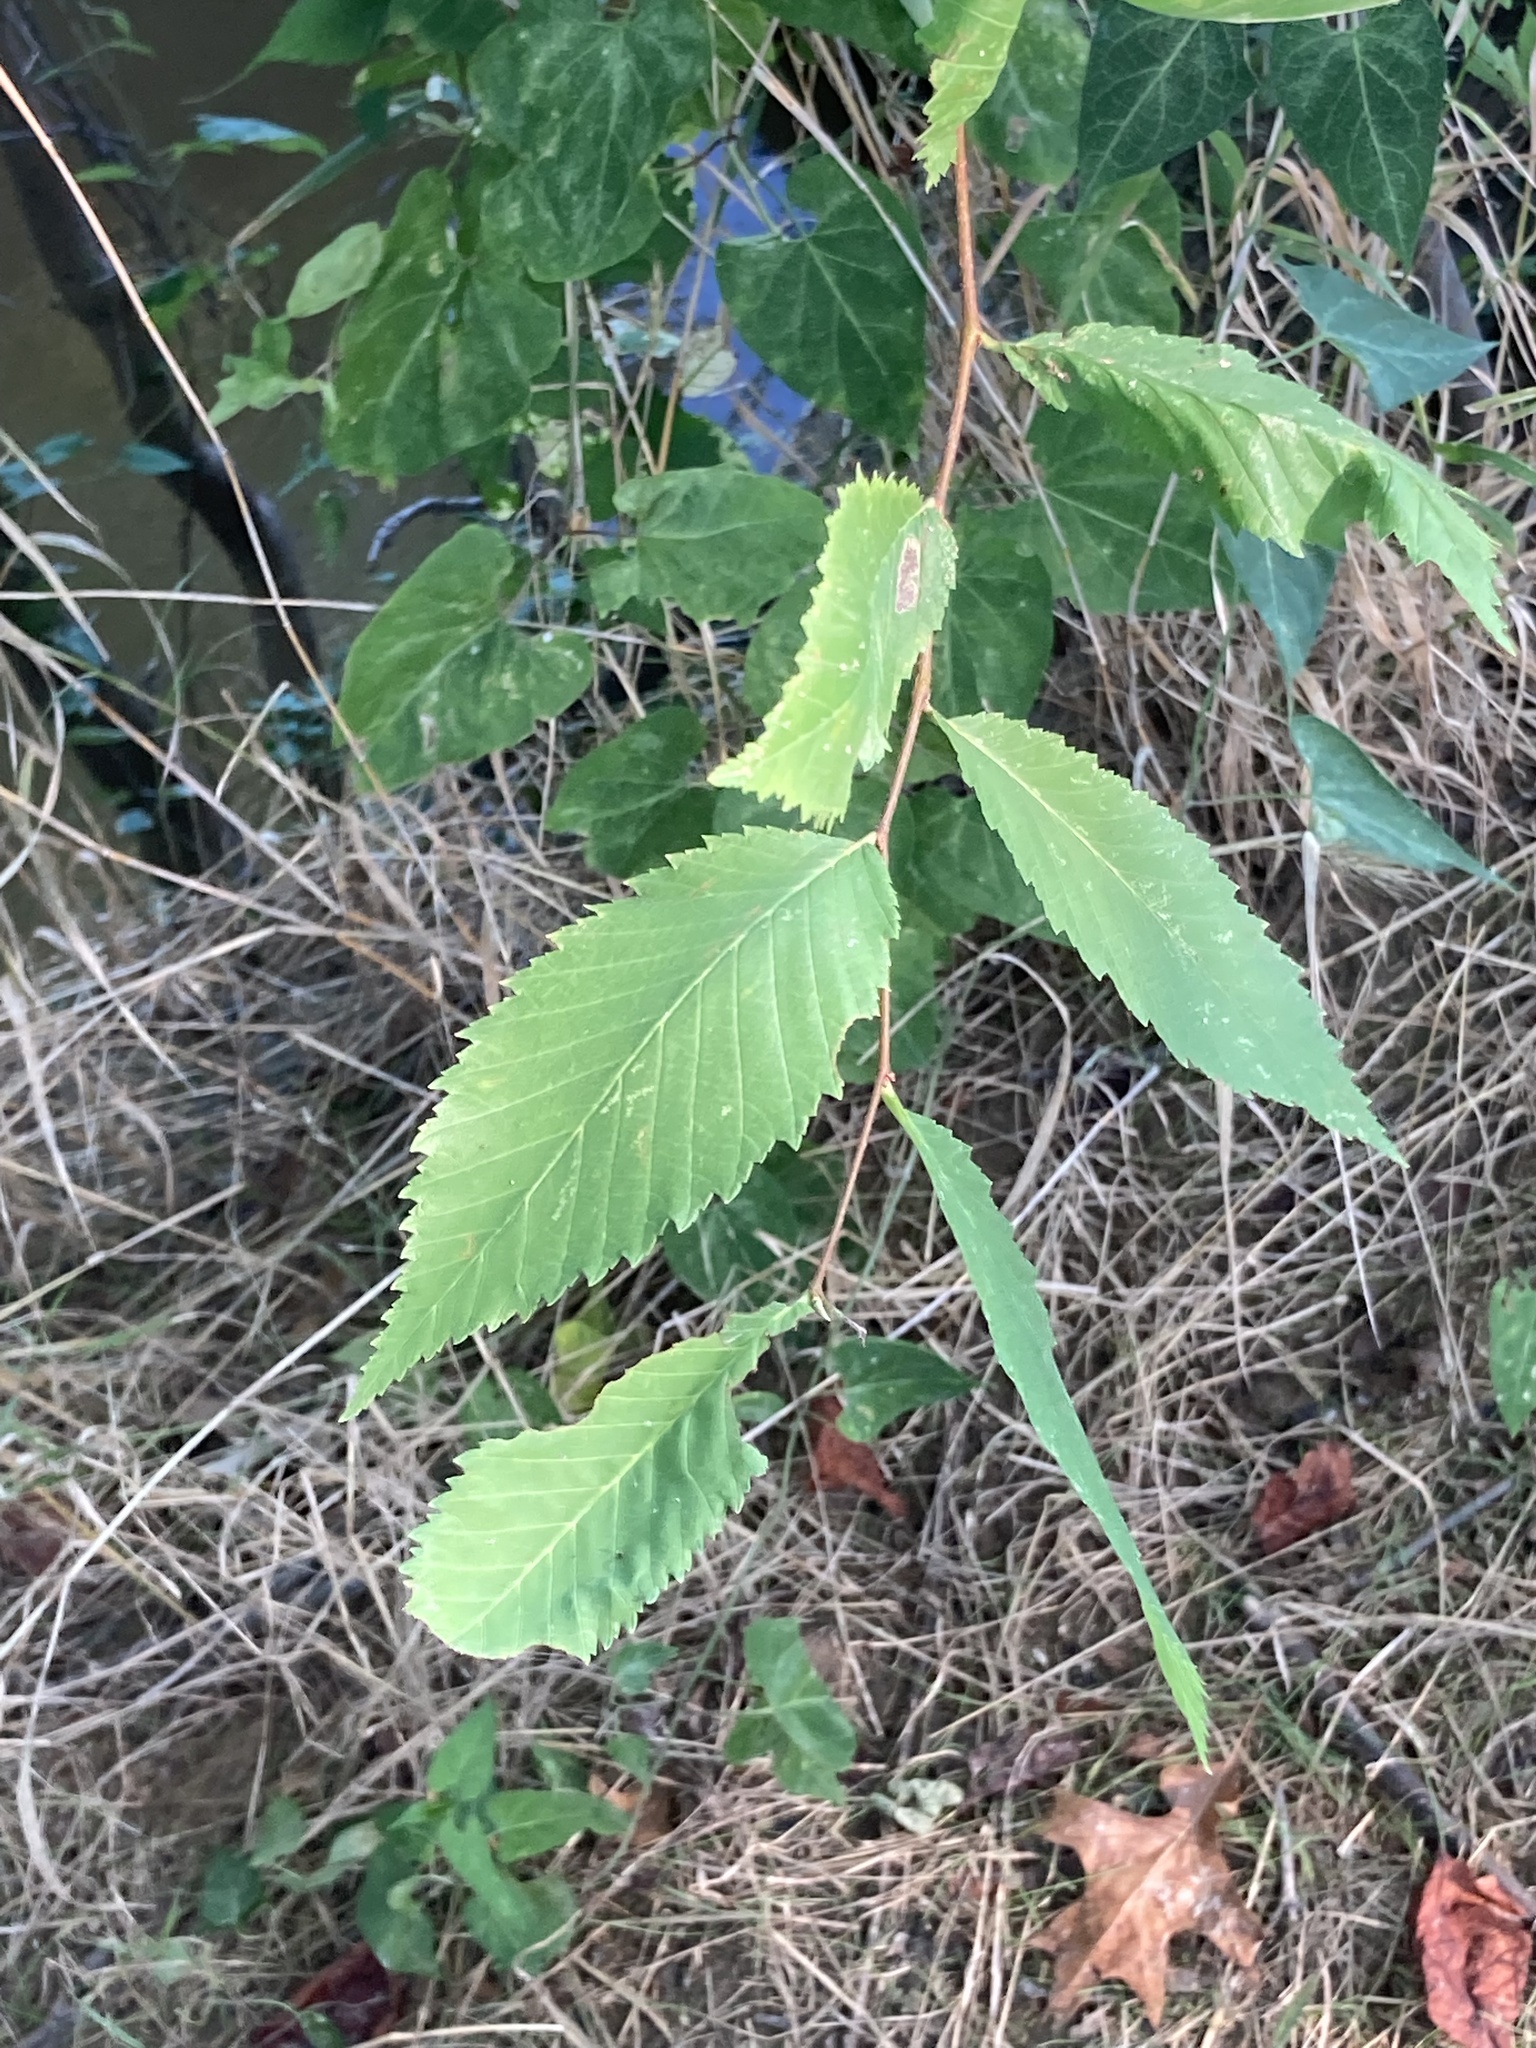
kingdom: Plantae
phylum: Tracheophyta
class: Magnoliopsida
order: Rosales
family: Ulmaceae
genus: Ulmus
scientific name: Ulmus americana
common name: American elm
